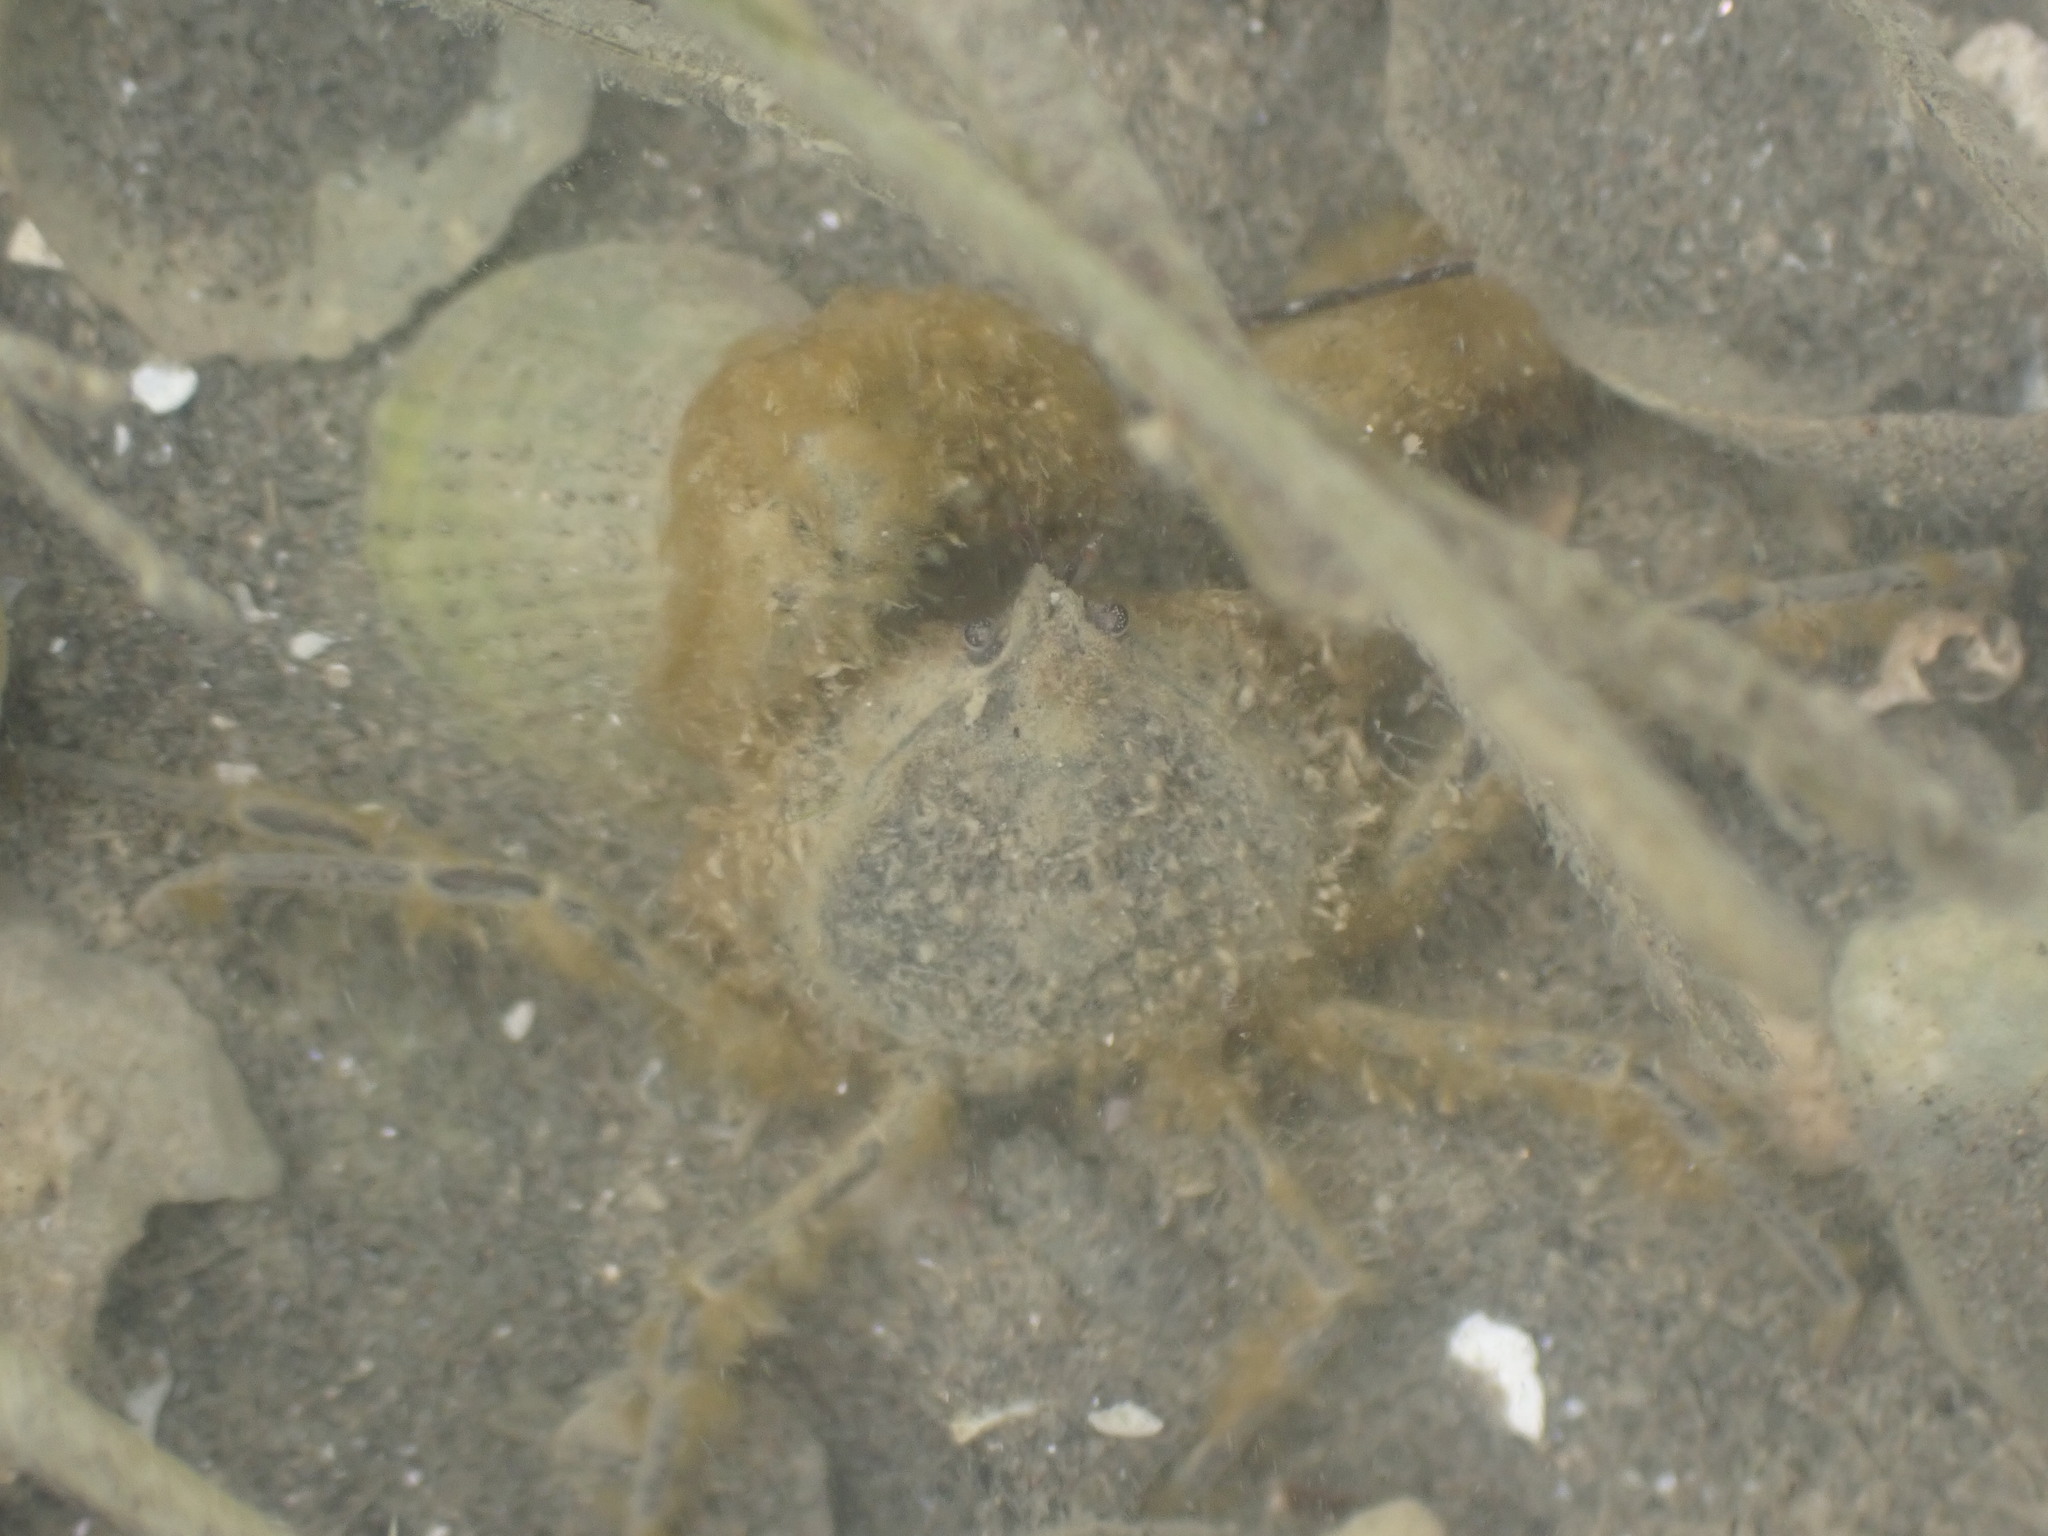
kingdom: Animalia
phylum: Arthropoda
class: Malacostraca
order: Decapoda
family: Hymenosomatidae
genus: Halicarcinus
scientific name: Halicarcinus whitei
